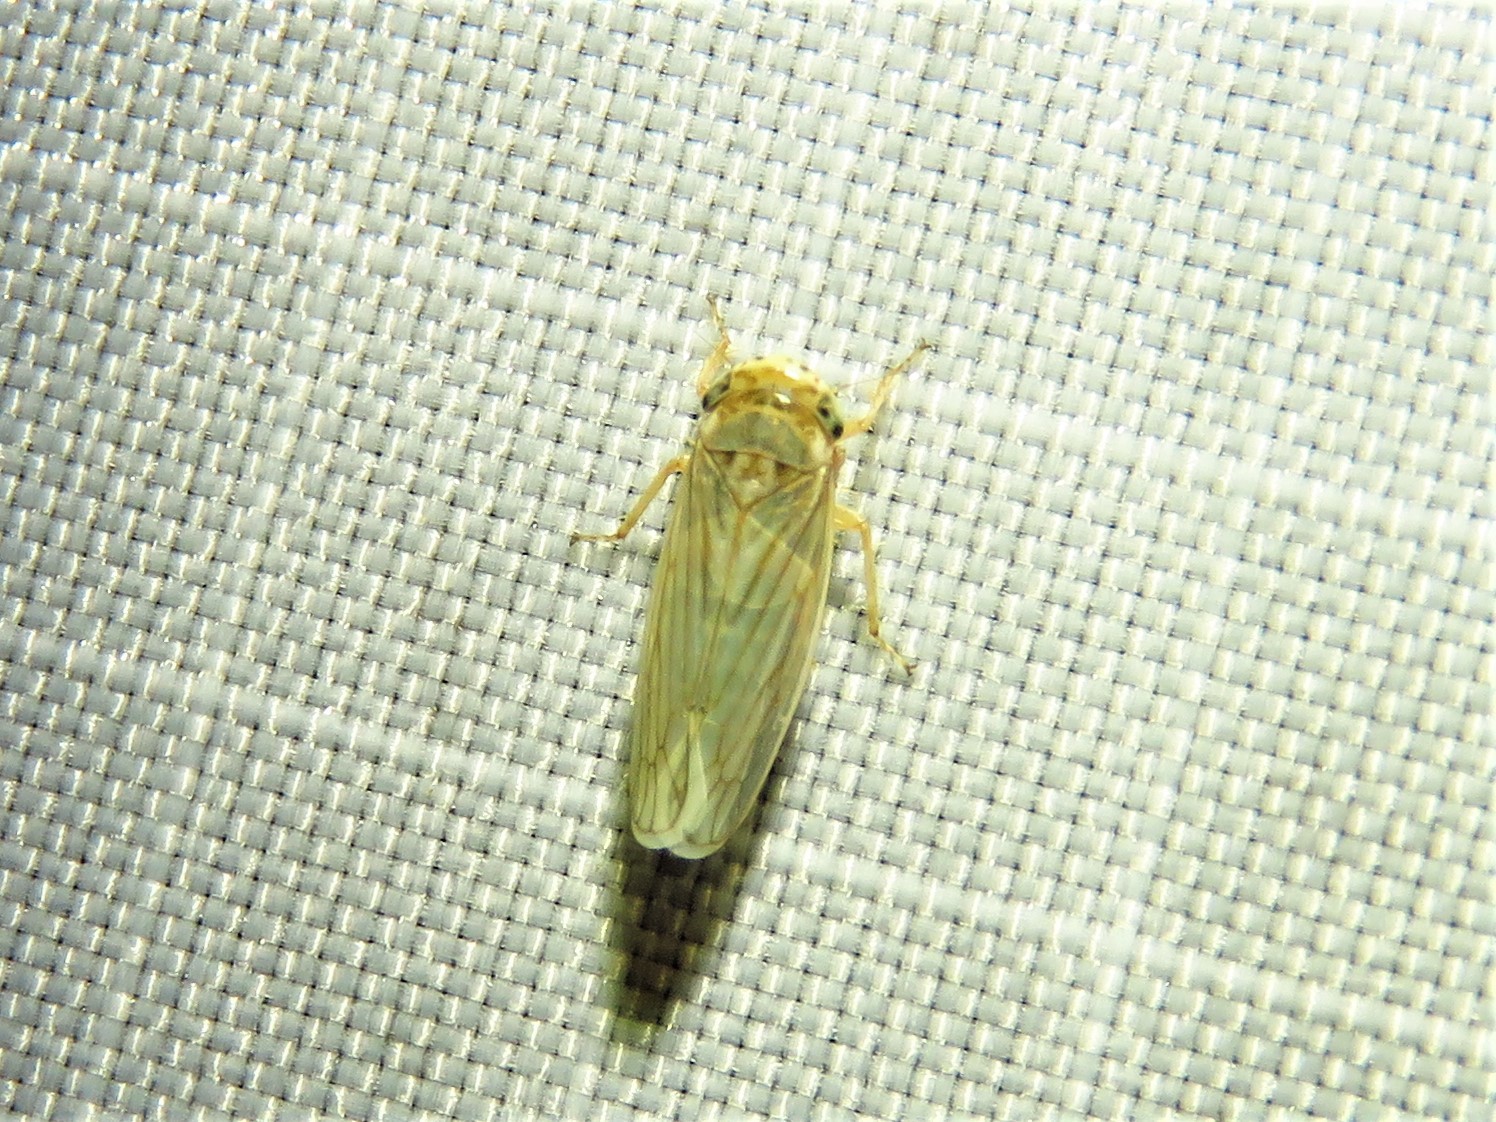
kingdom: Animalia
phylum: Arthropoda
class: Insecta
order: Hemiptera
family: Cicadellidae
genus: Exitianus
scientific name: Exitianus exitiosus
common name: Gray lawn leafhopper
